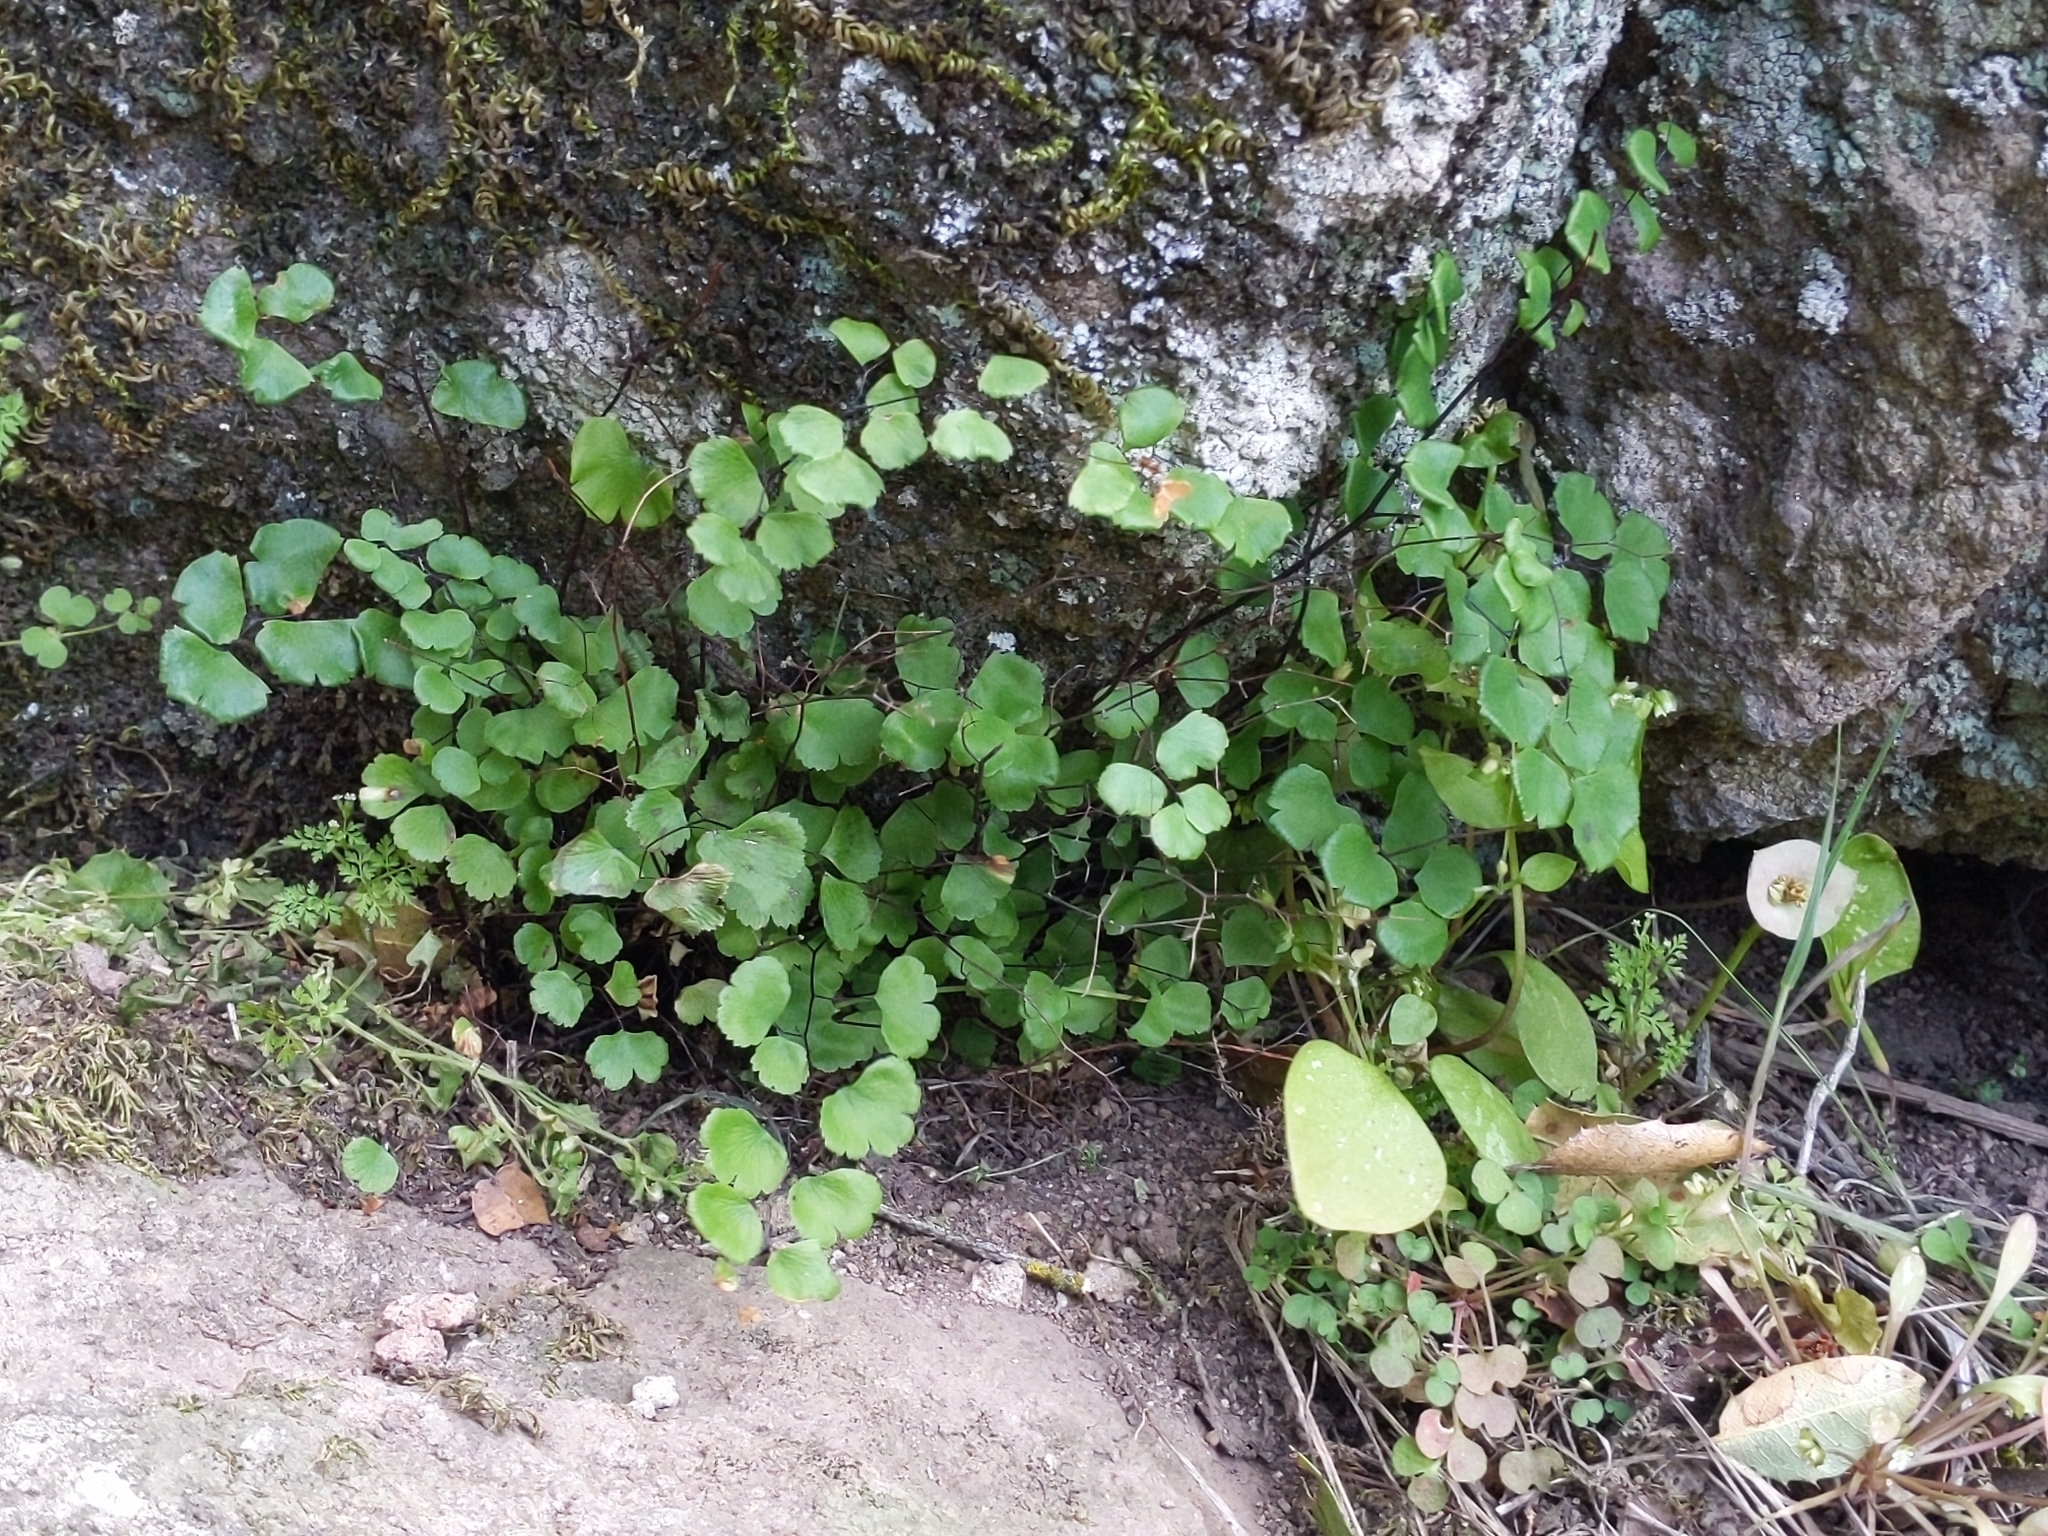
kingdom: Plantae
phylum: Tracheophyta
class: Polypodiopsida
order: Polypodiales
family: Pteridaceae
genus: Adiantum
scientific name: Adiantum jordanii
